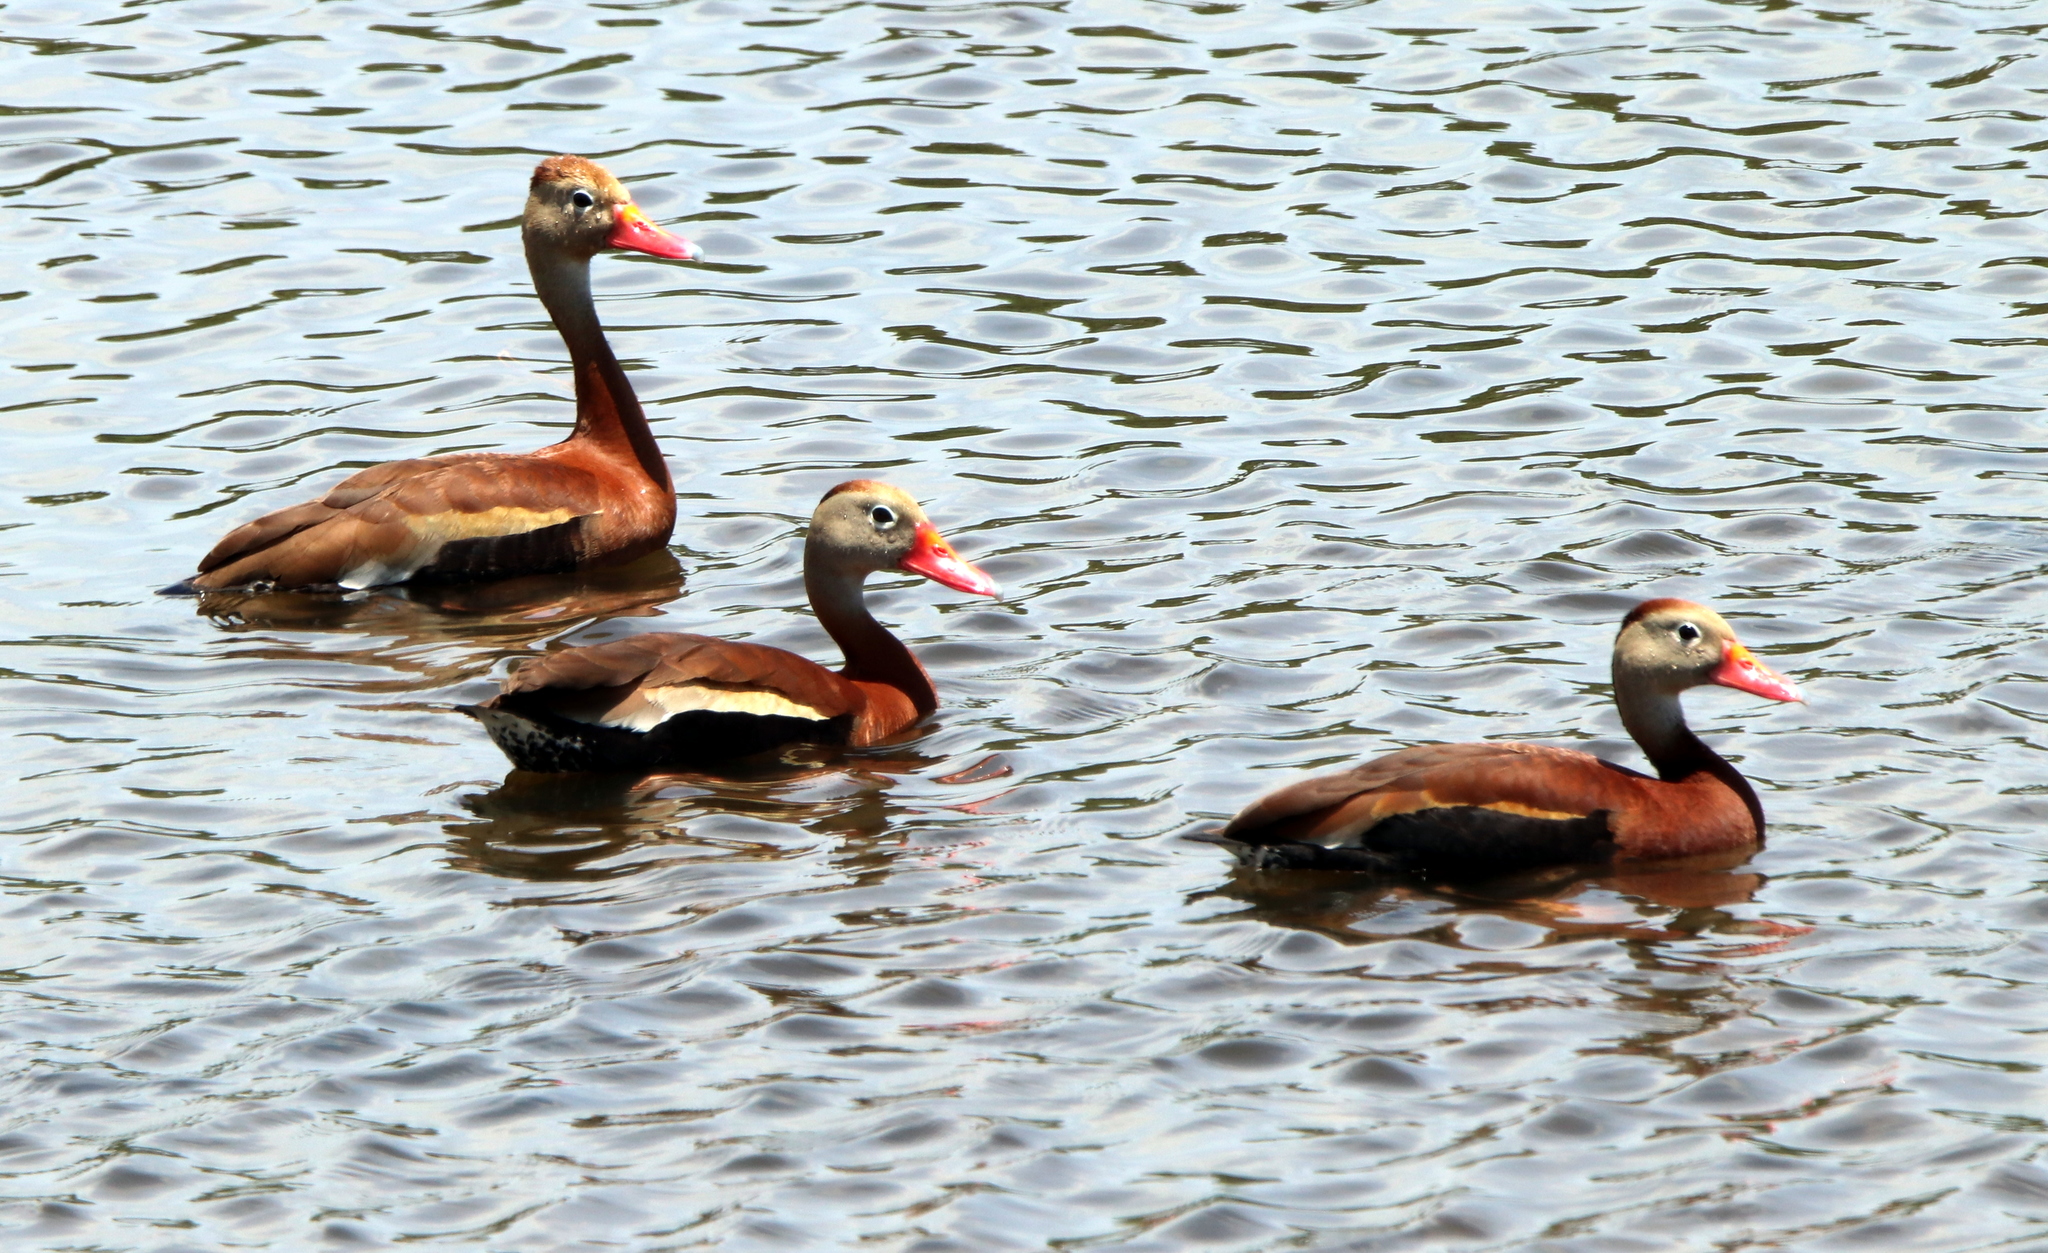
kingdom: Animalia
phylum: Chordata
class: Aves
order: Anseriformes
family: Anatidae
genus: Dendrocygna
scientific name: Dendrocygna autumnalis
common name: Black-bellied whistling duck
